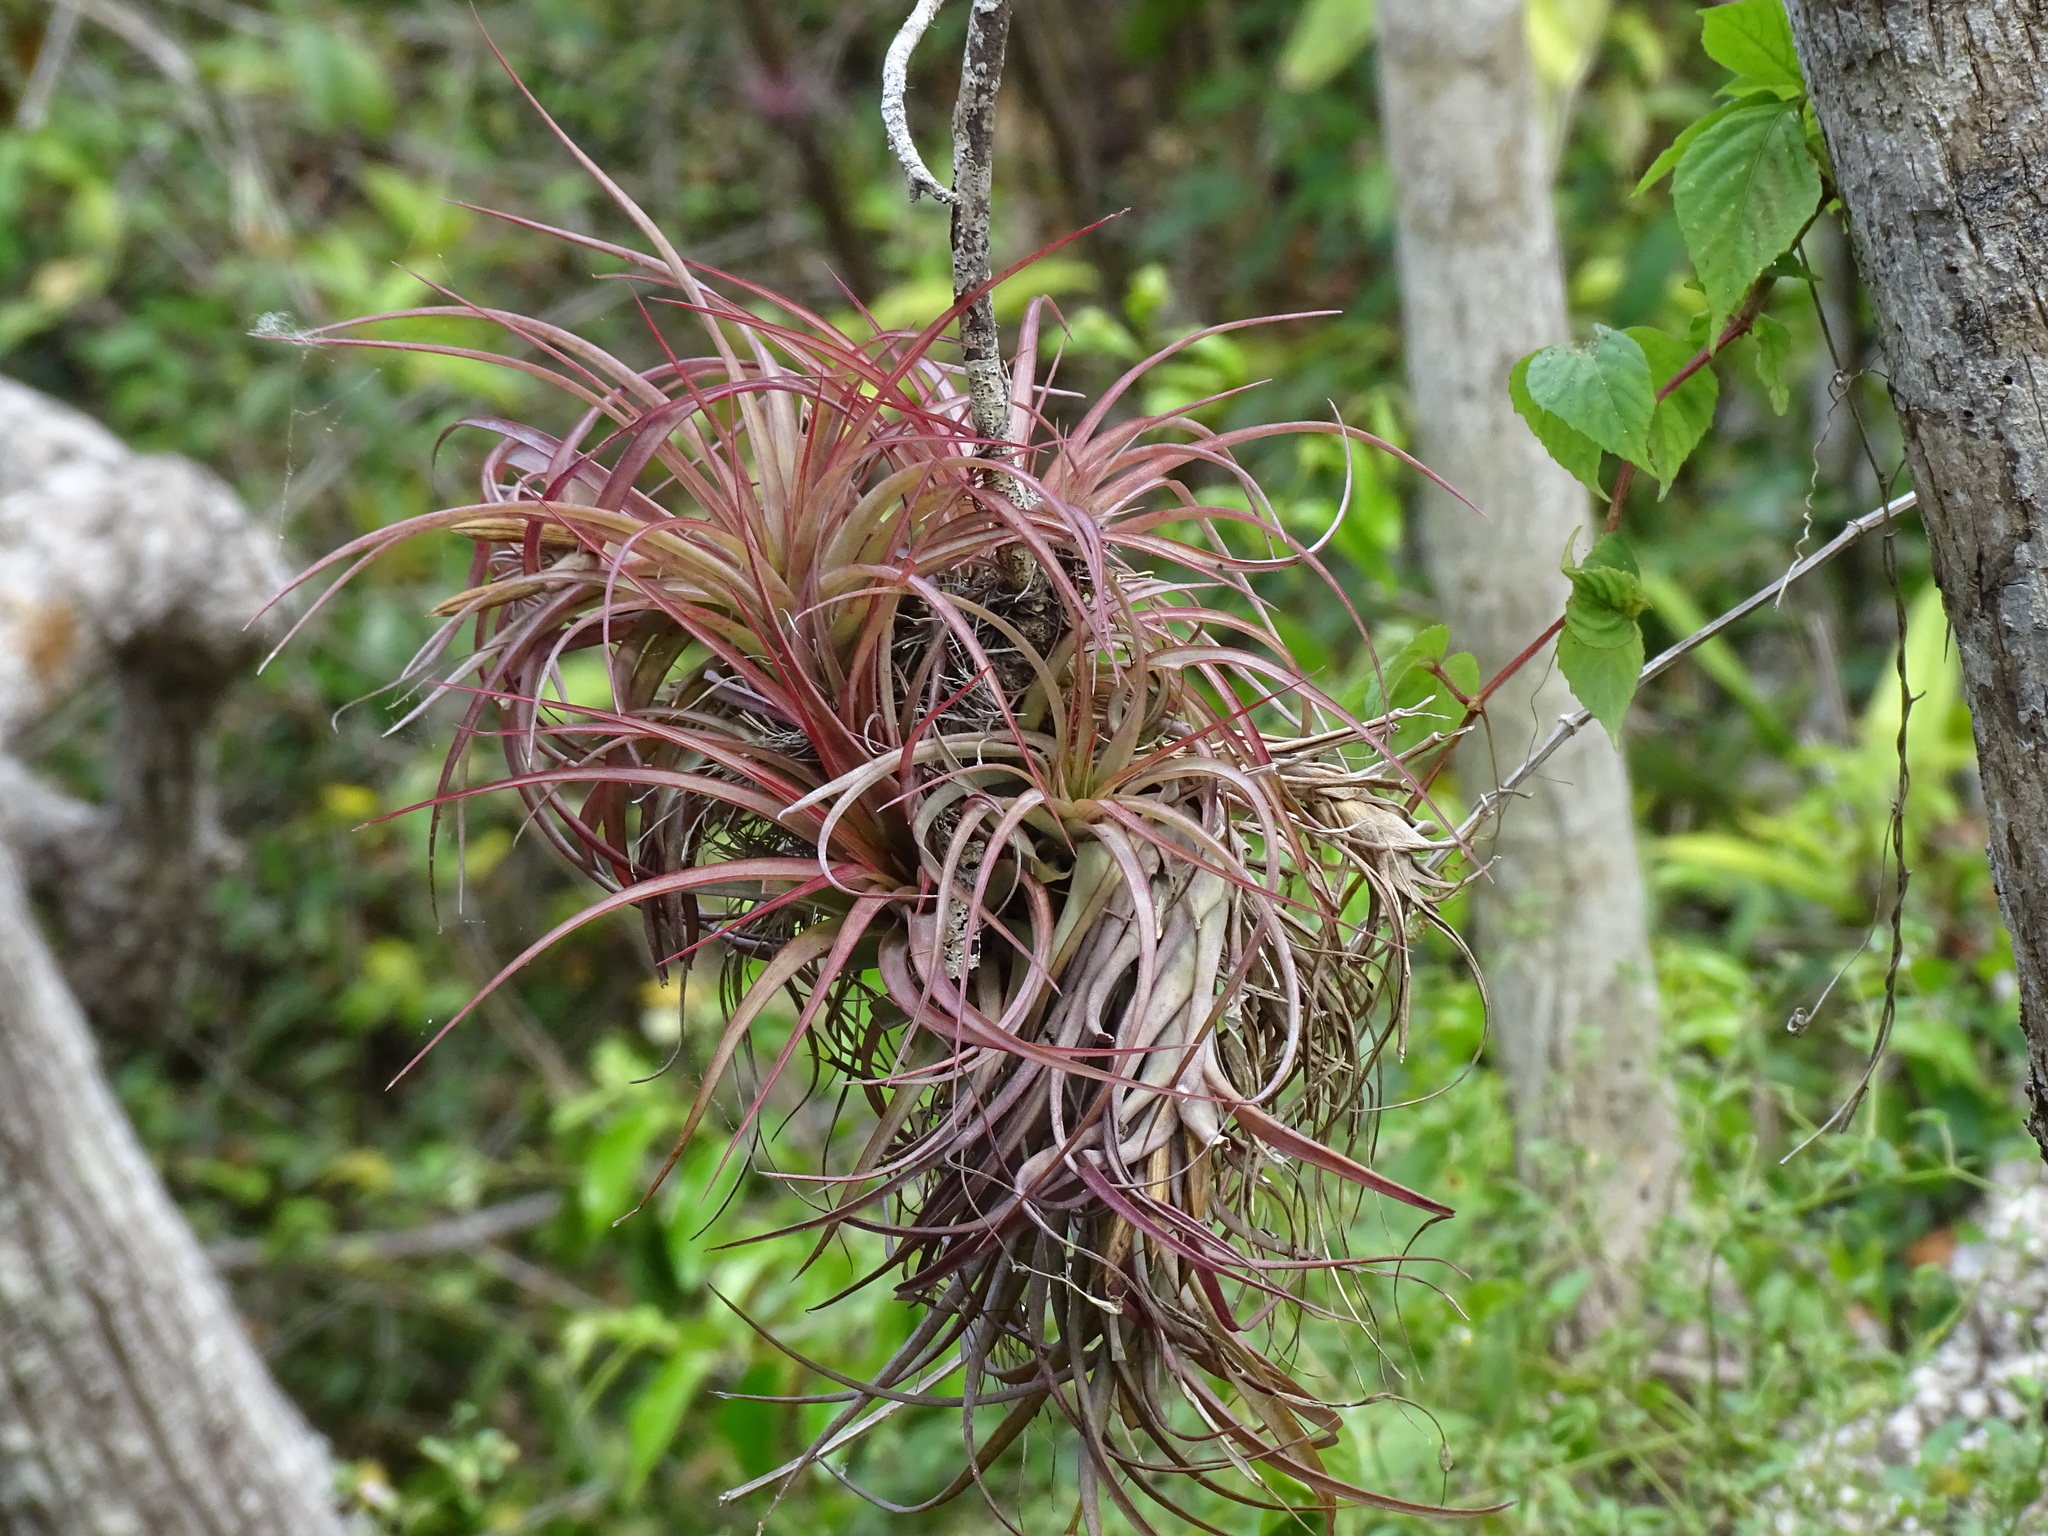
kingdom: Plantae
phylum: Tracheophyta
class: Liliopsida
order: Poales
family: Bromeliaceae
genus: Tillandsia
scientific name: Tillandsia brachycaulos
